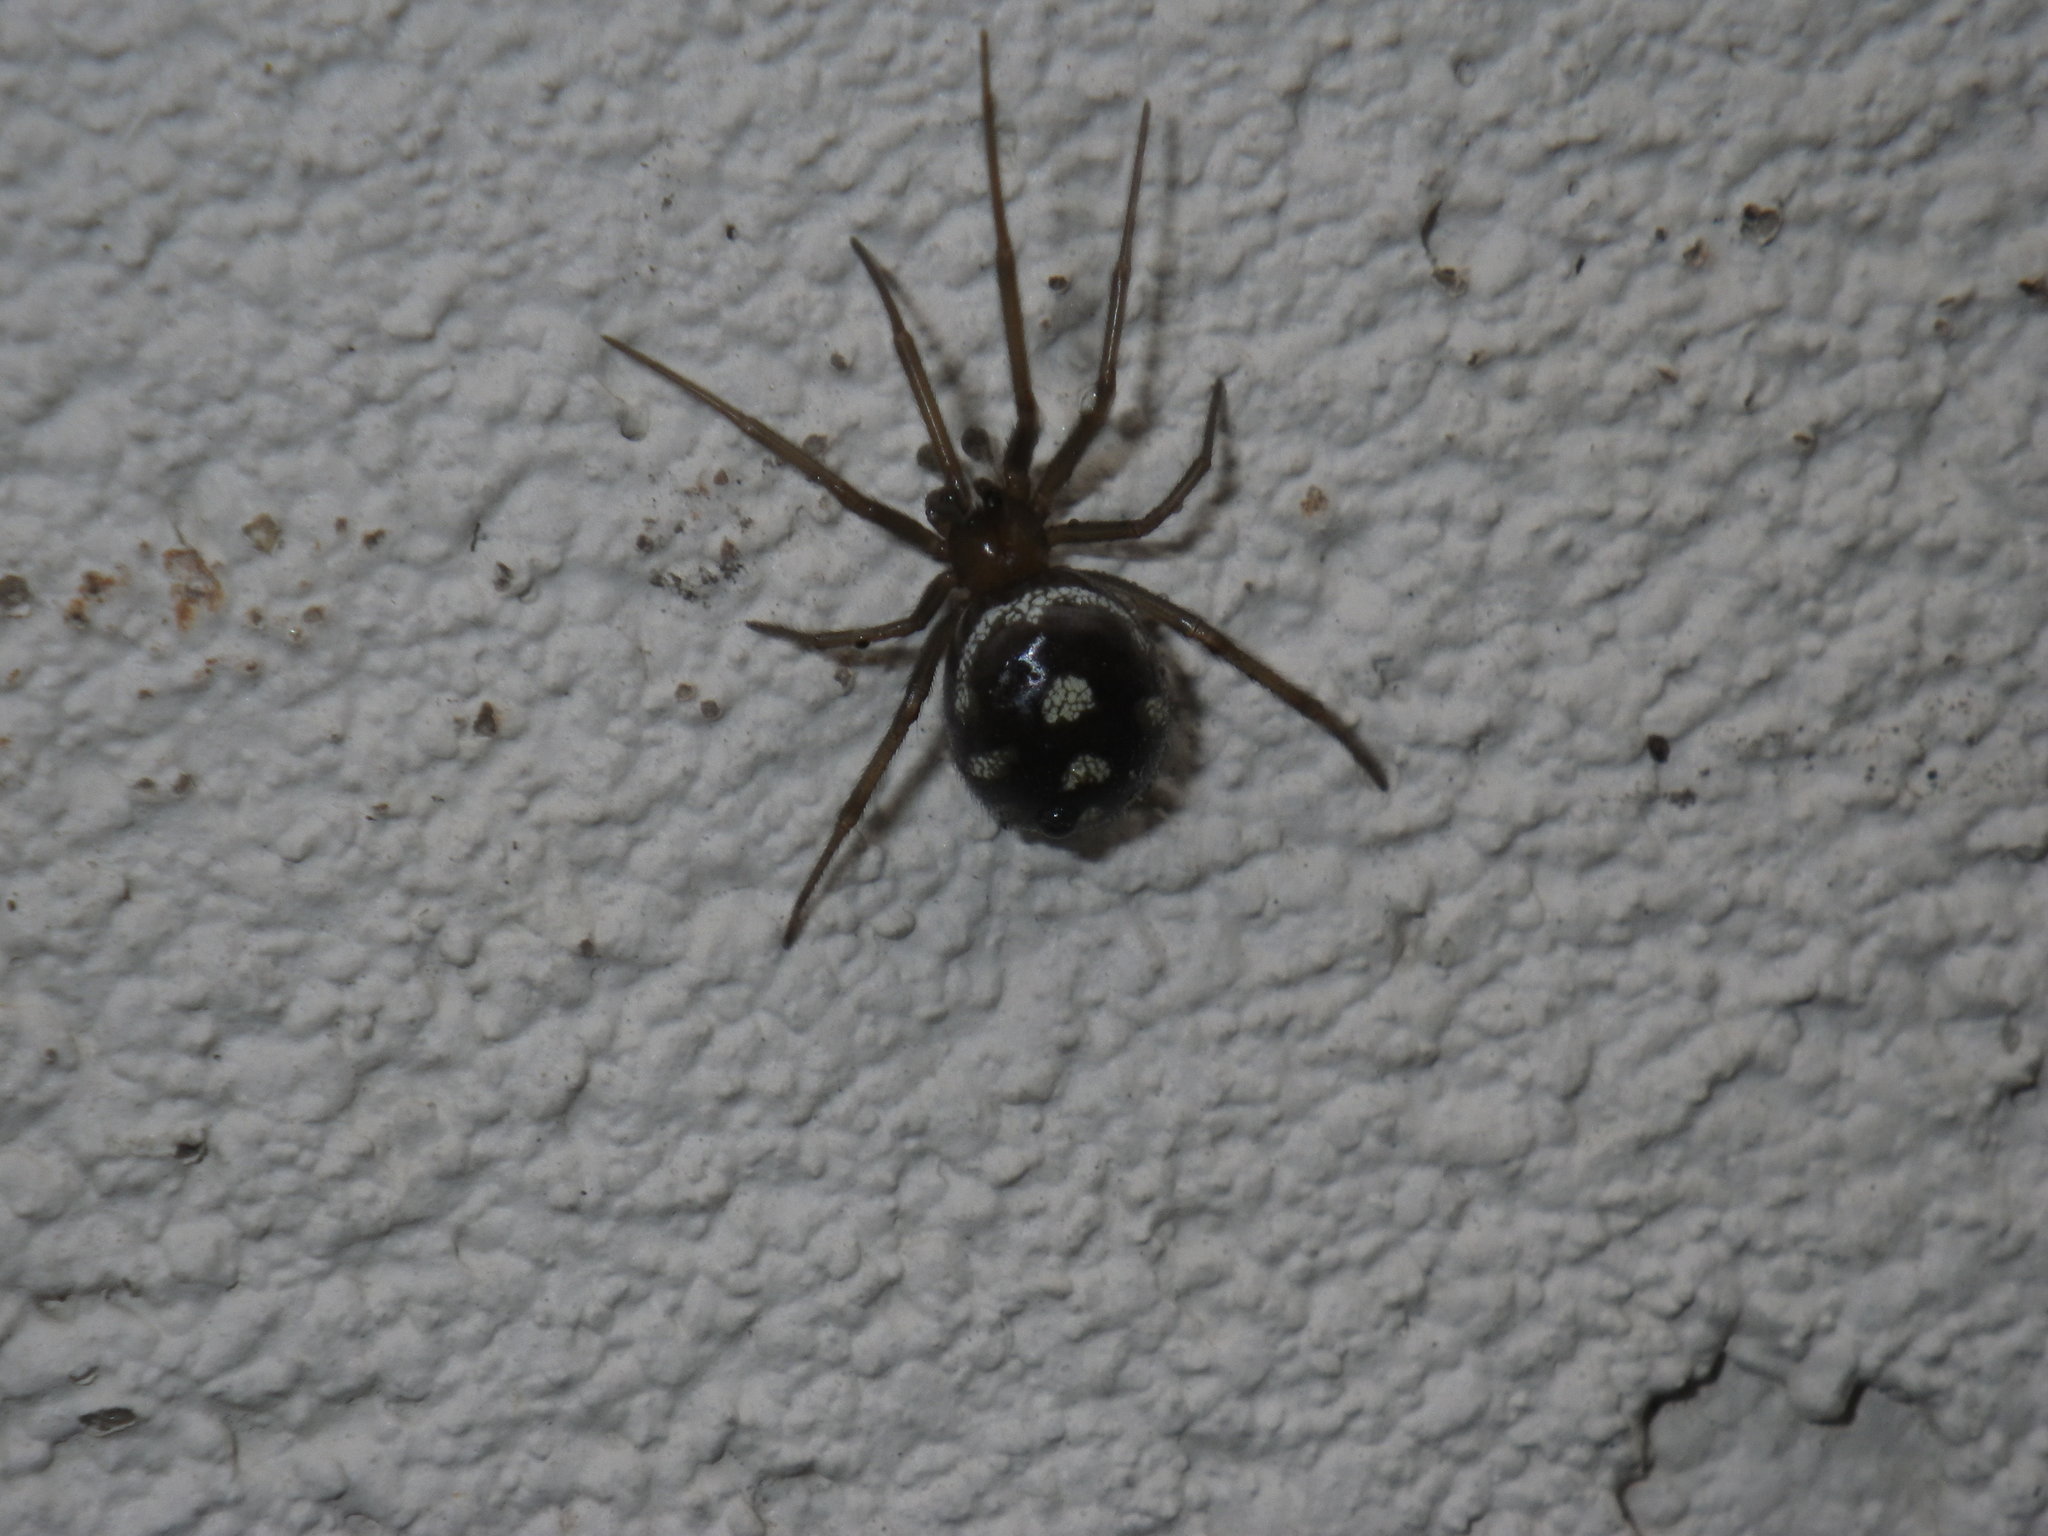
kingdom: Animalia
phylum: Arthropoda
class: Arachnida
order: Araneae
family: Theridiidae
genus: Steatoda
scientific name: Steatoda grossa
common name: False black widow
